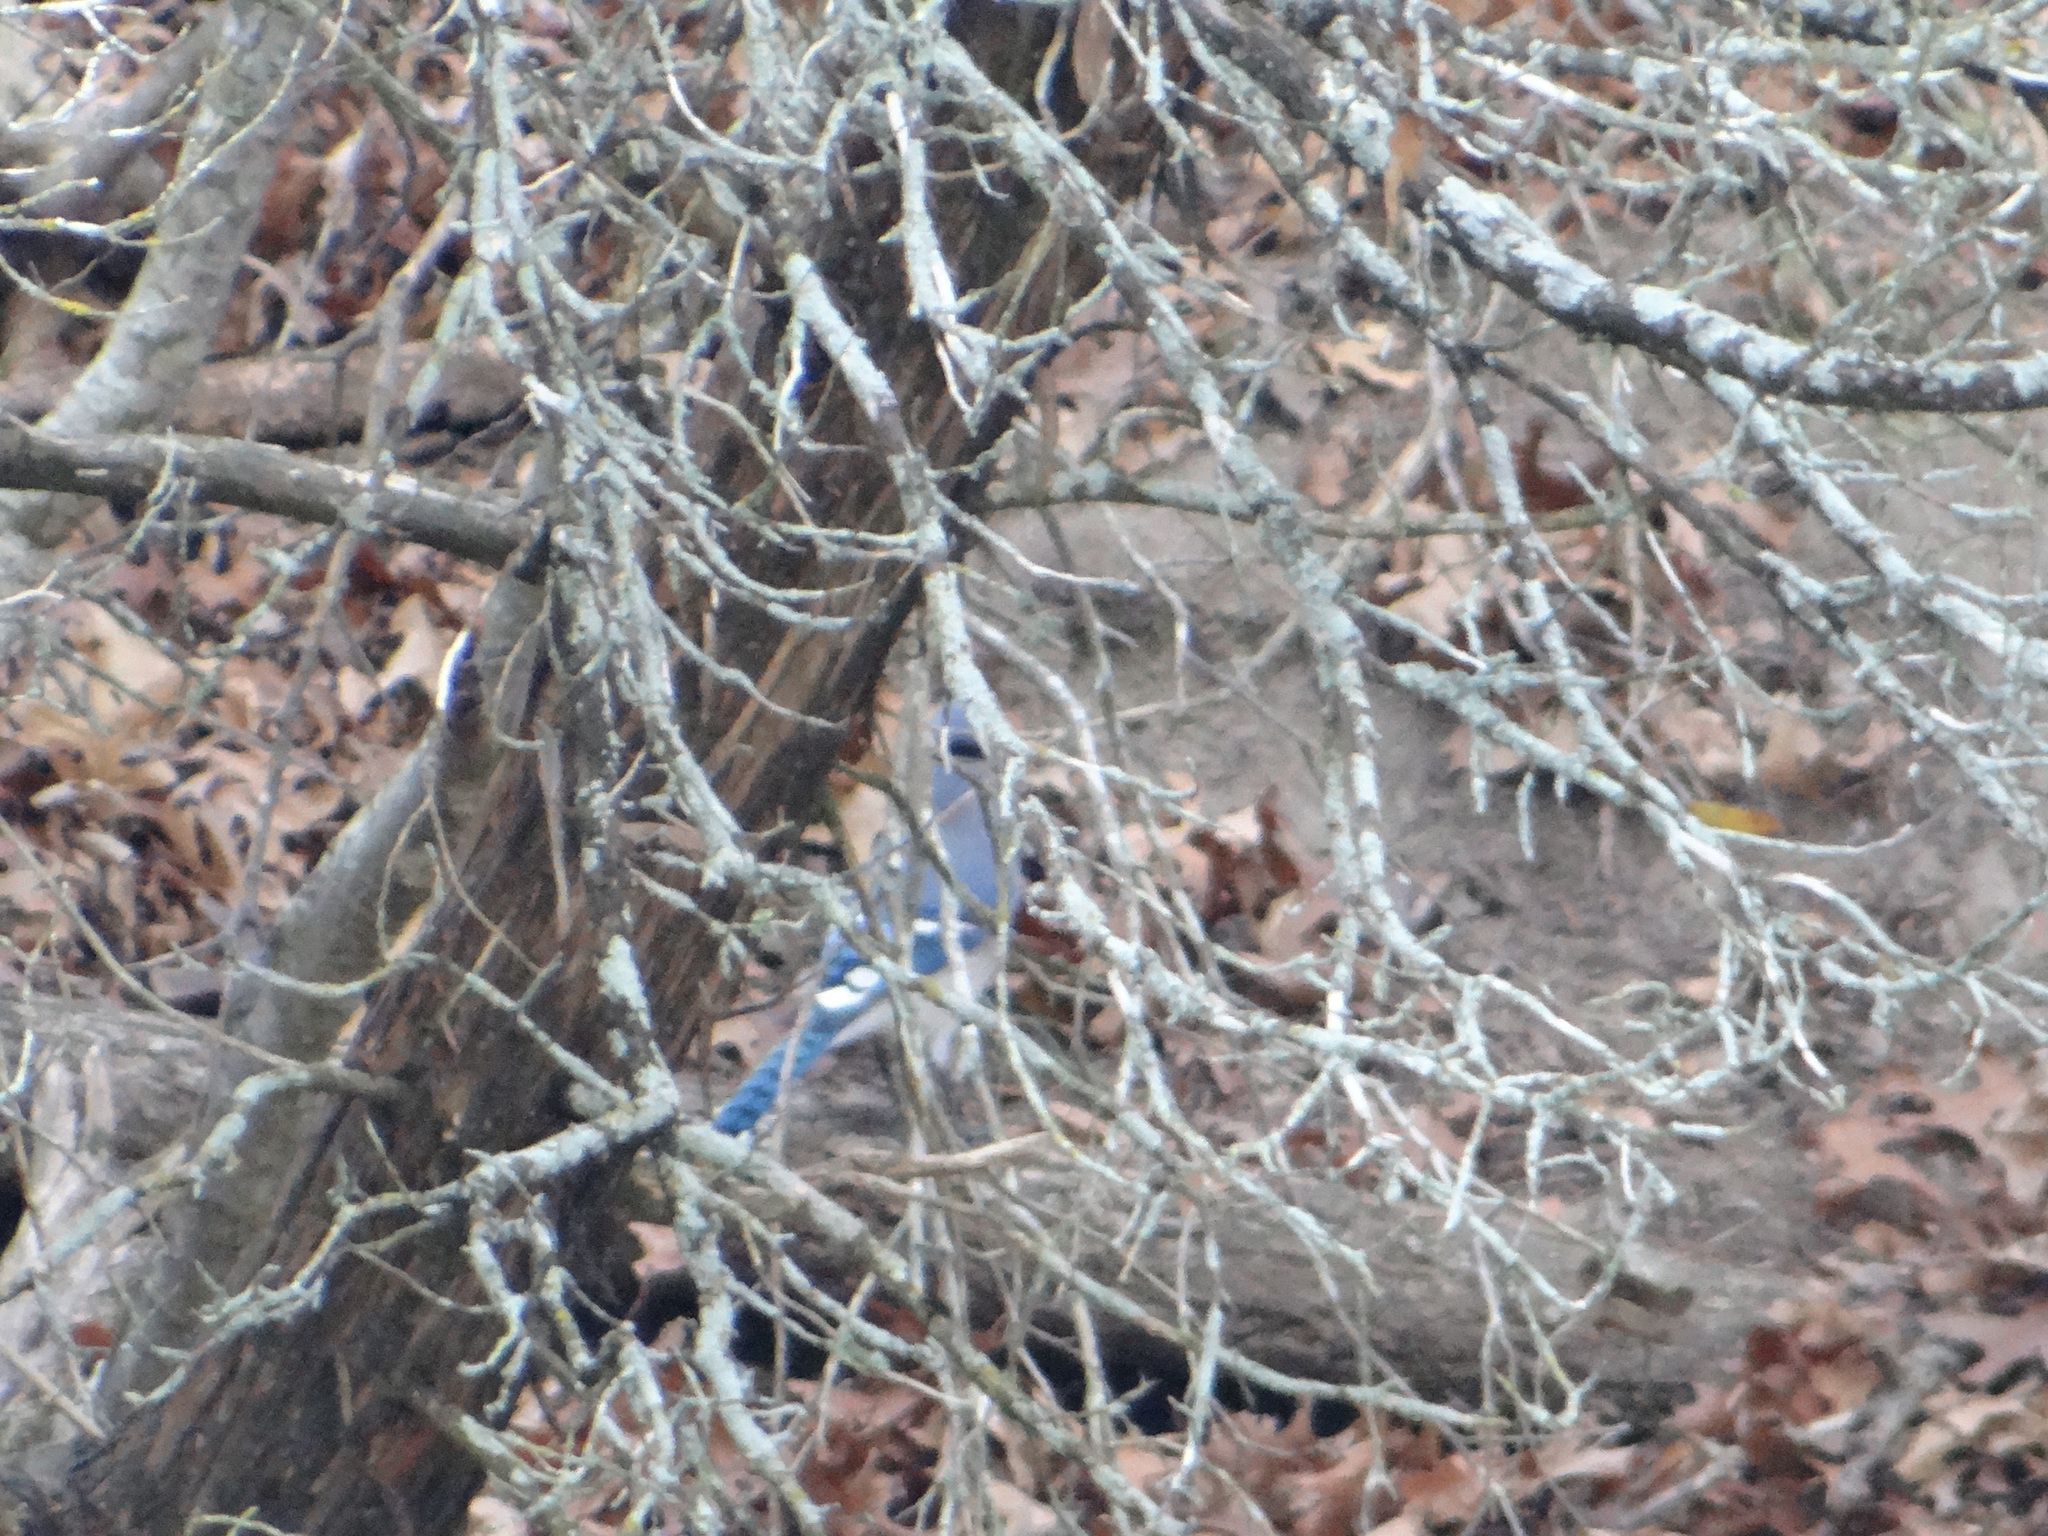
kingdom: Animalia
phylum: Chordata
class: Aves
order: Passeriformes
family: Corvidae
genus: Cyanocitta
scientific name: Cyanocitta cristata
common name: Blue jay
